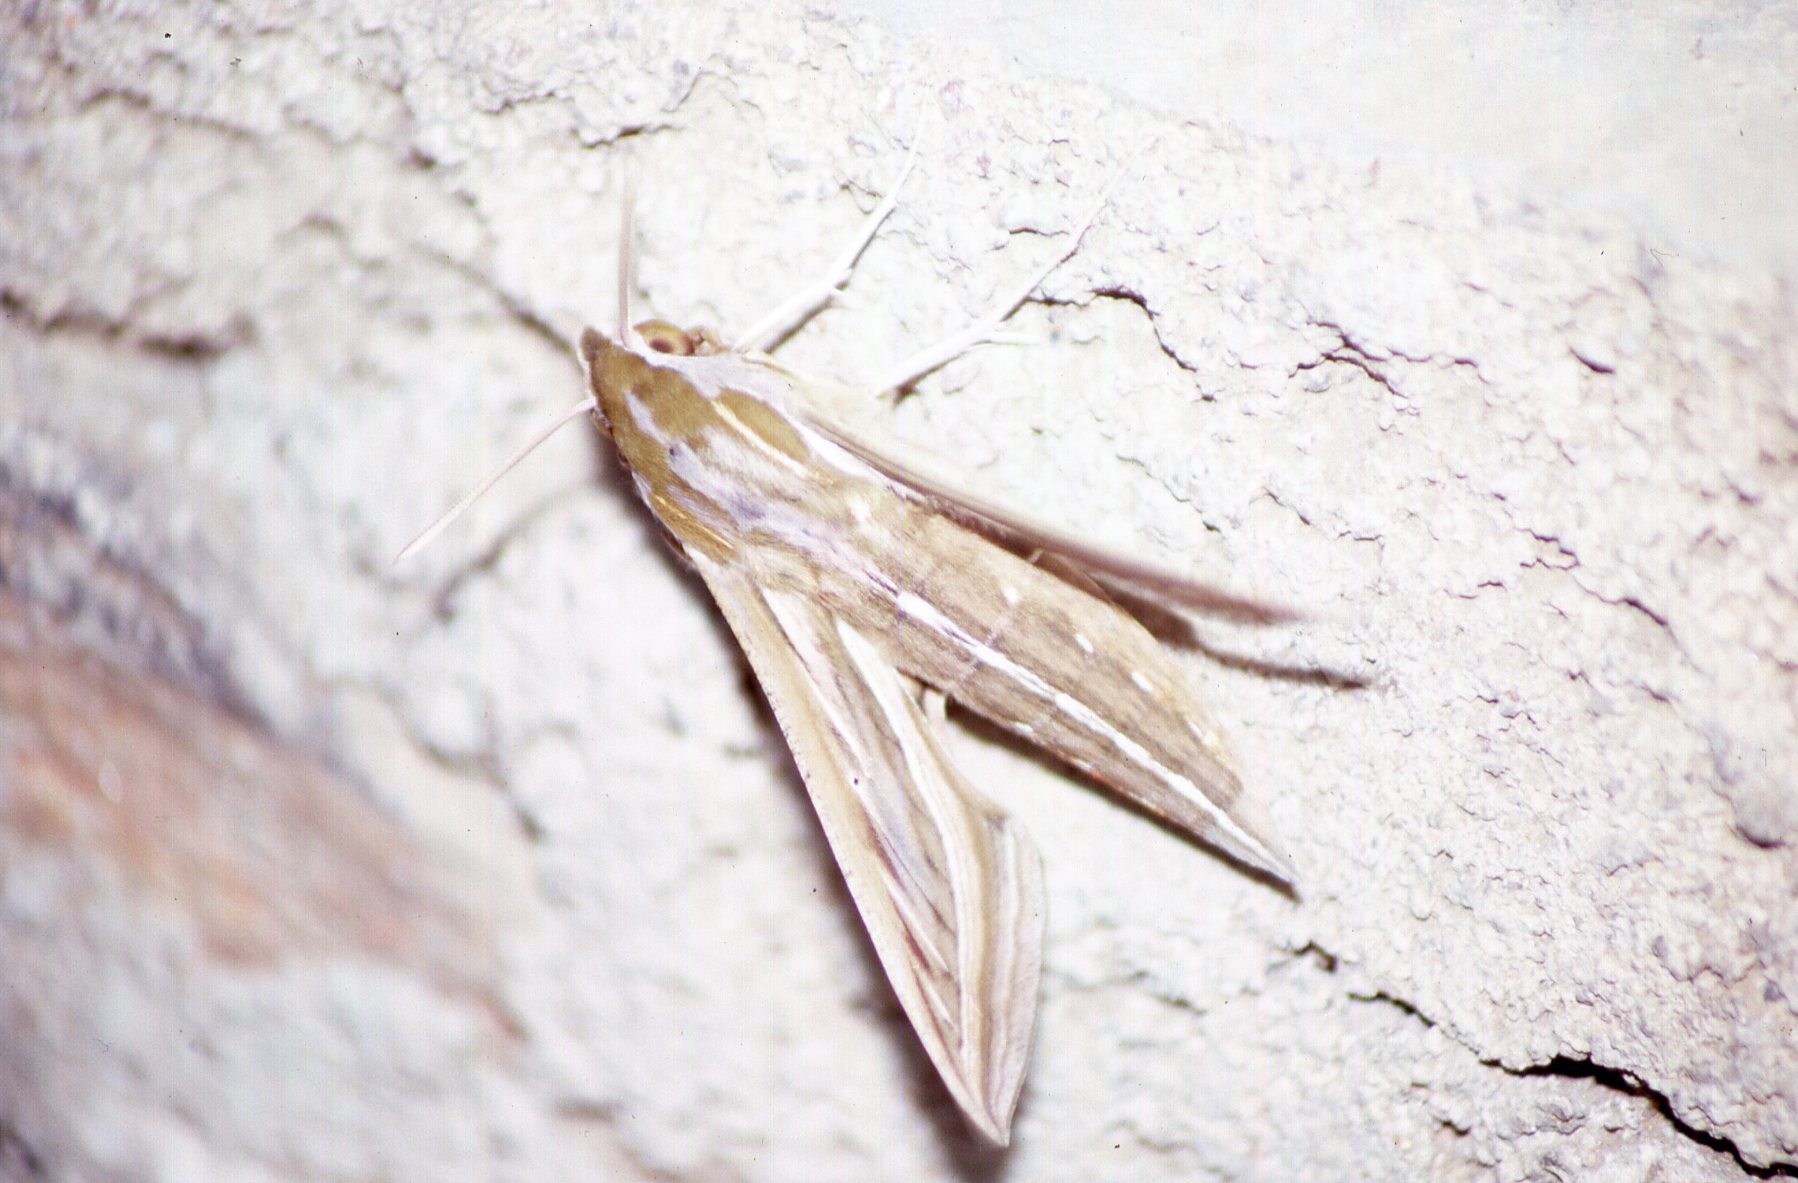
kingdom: Animalia
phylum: Arthropoda
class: Insecta
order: Lepidoptera
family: Sphingidae
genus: Hippotion
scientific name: Hippotion celerio
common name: Silver-striped hawk-moth
